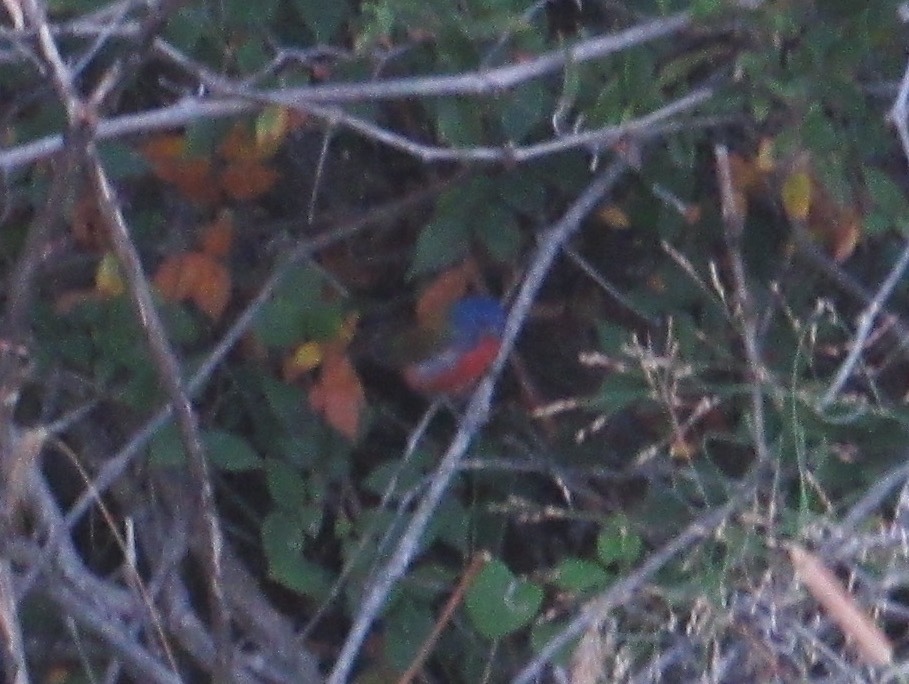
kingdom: Animalia
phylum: Chordata
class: Aves
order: Passeriformes
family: Cardinalidae
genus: Passerina
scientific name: Passerina ciris
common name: Painted bunting
